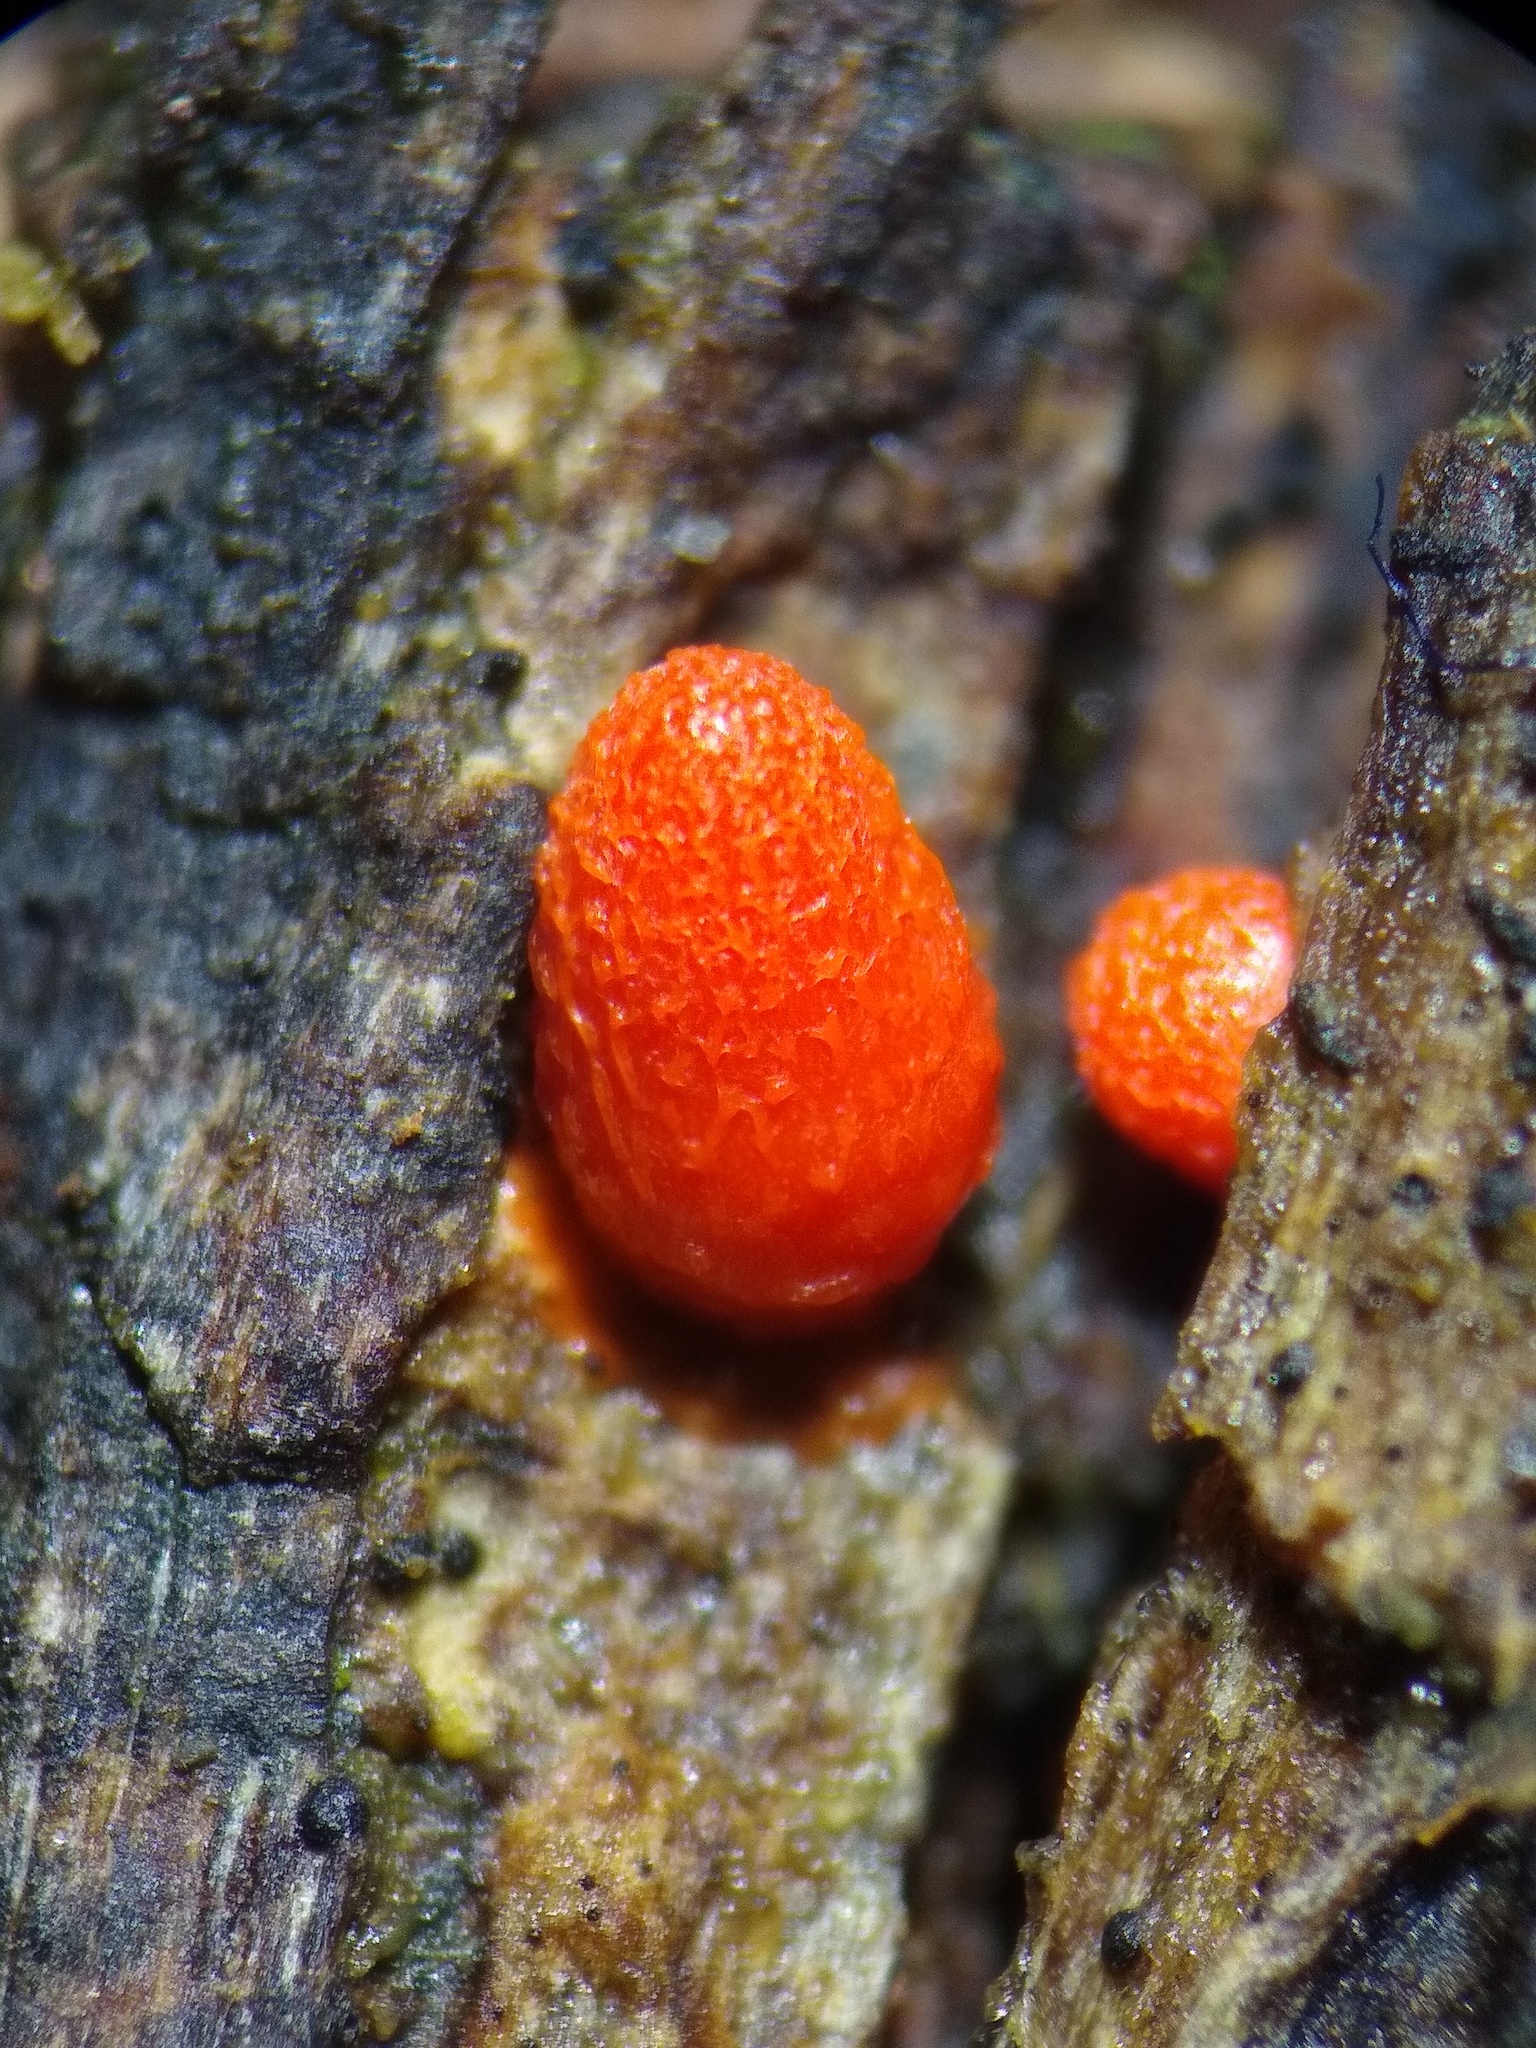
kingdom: Protozoa
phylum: Mycetozoa
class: Myxomycetes
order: Cribrariales
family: Tubiferaceae
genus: Lycogala
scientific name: Lycogala conicum
